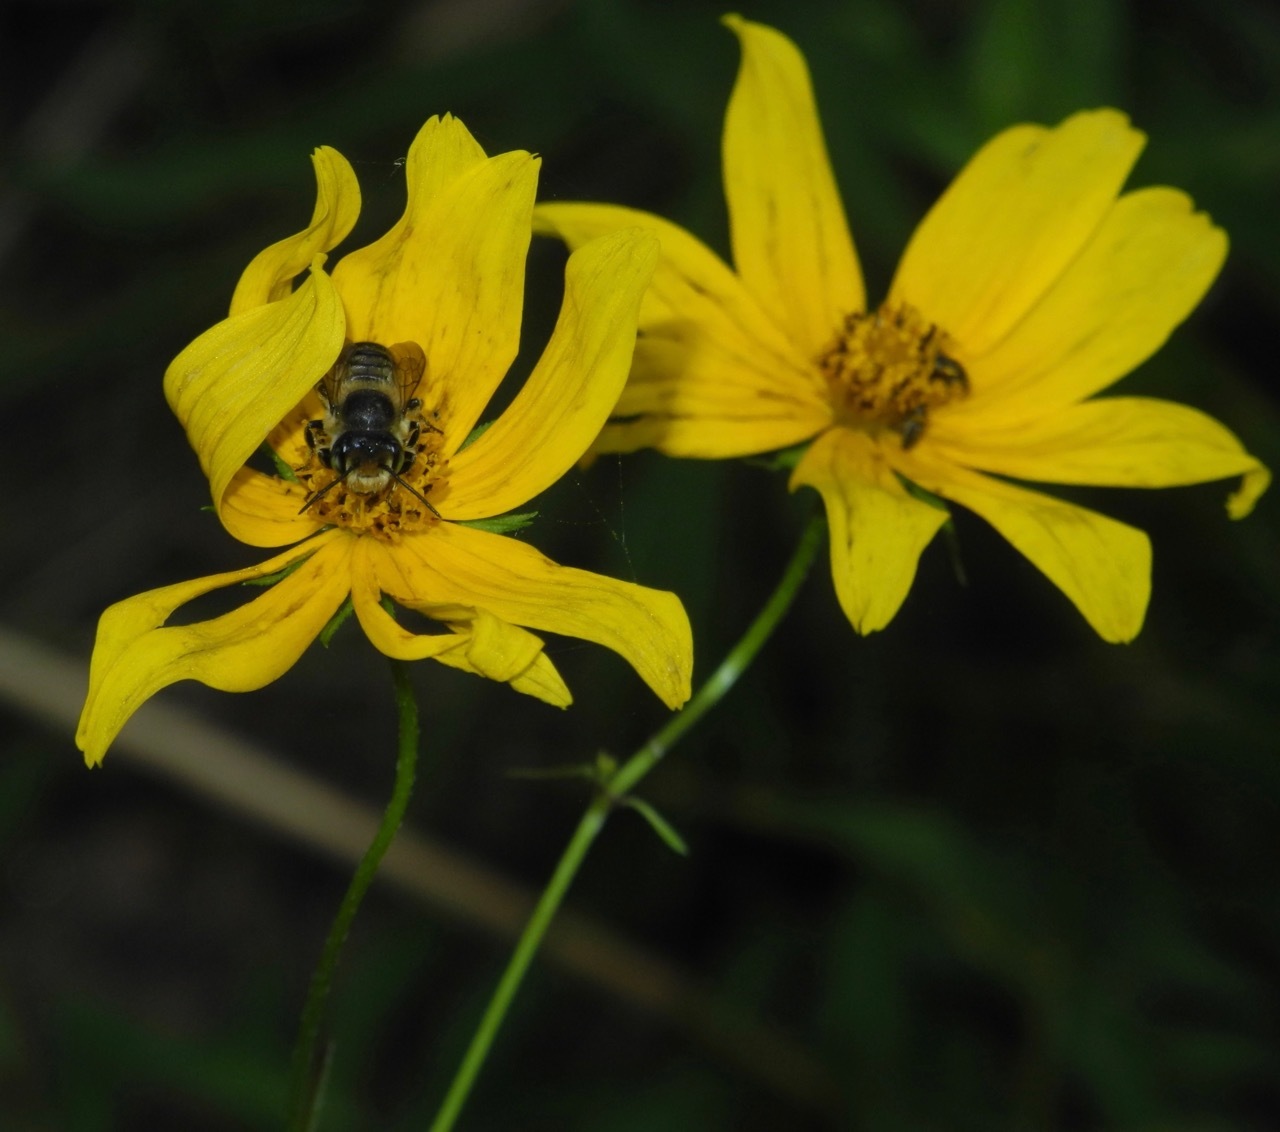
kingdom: Plantae
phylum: Tracheophyta
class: Magnoliopsida
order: Asterales
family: Asteraceae
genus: Bidens
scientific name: Bidens trichosperma
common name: Crowned beggarticks
